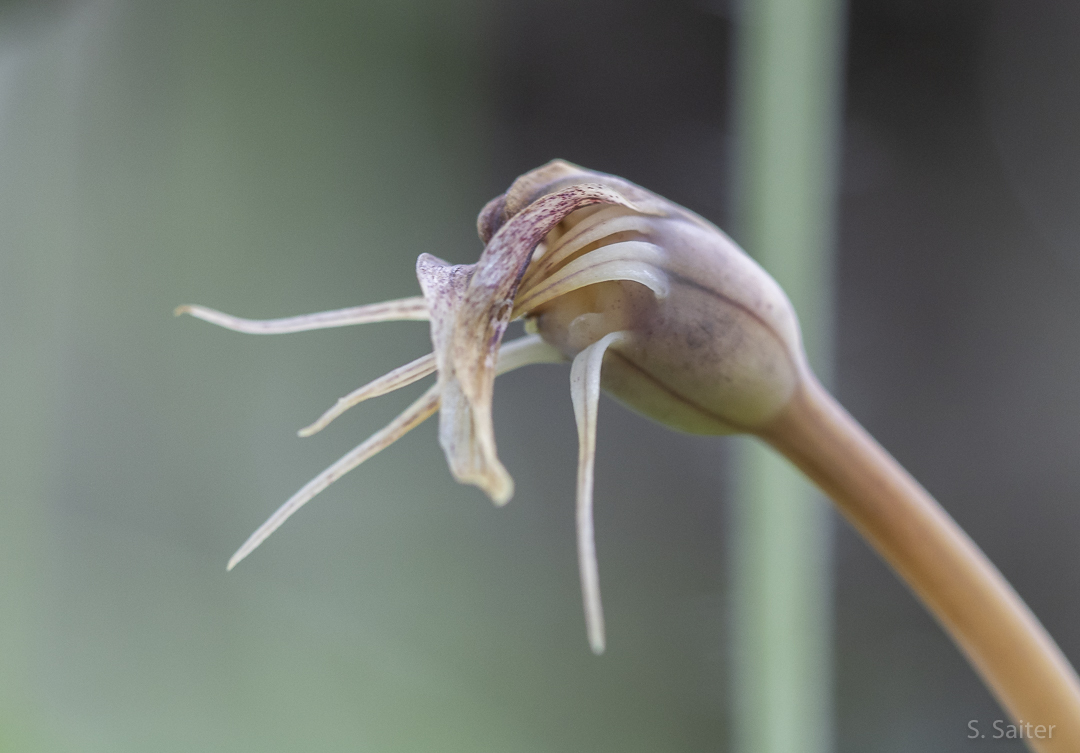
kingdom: Plantae
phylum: Tracheophyta
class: Liliopsida
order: Liliales
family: Corsiaceae
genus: Arachnitis
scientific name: Arachnitis uniflora
